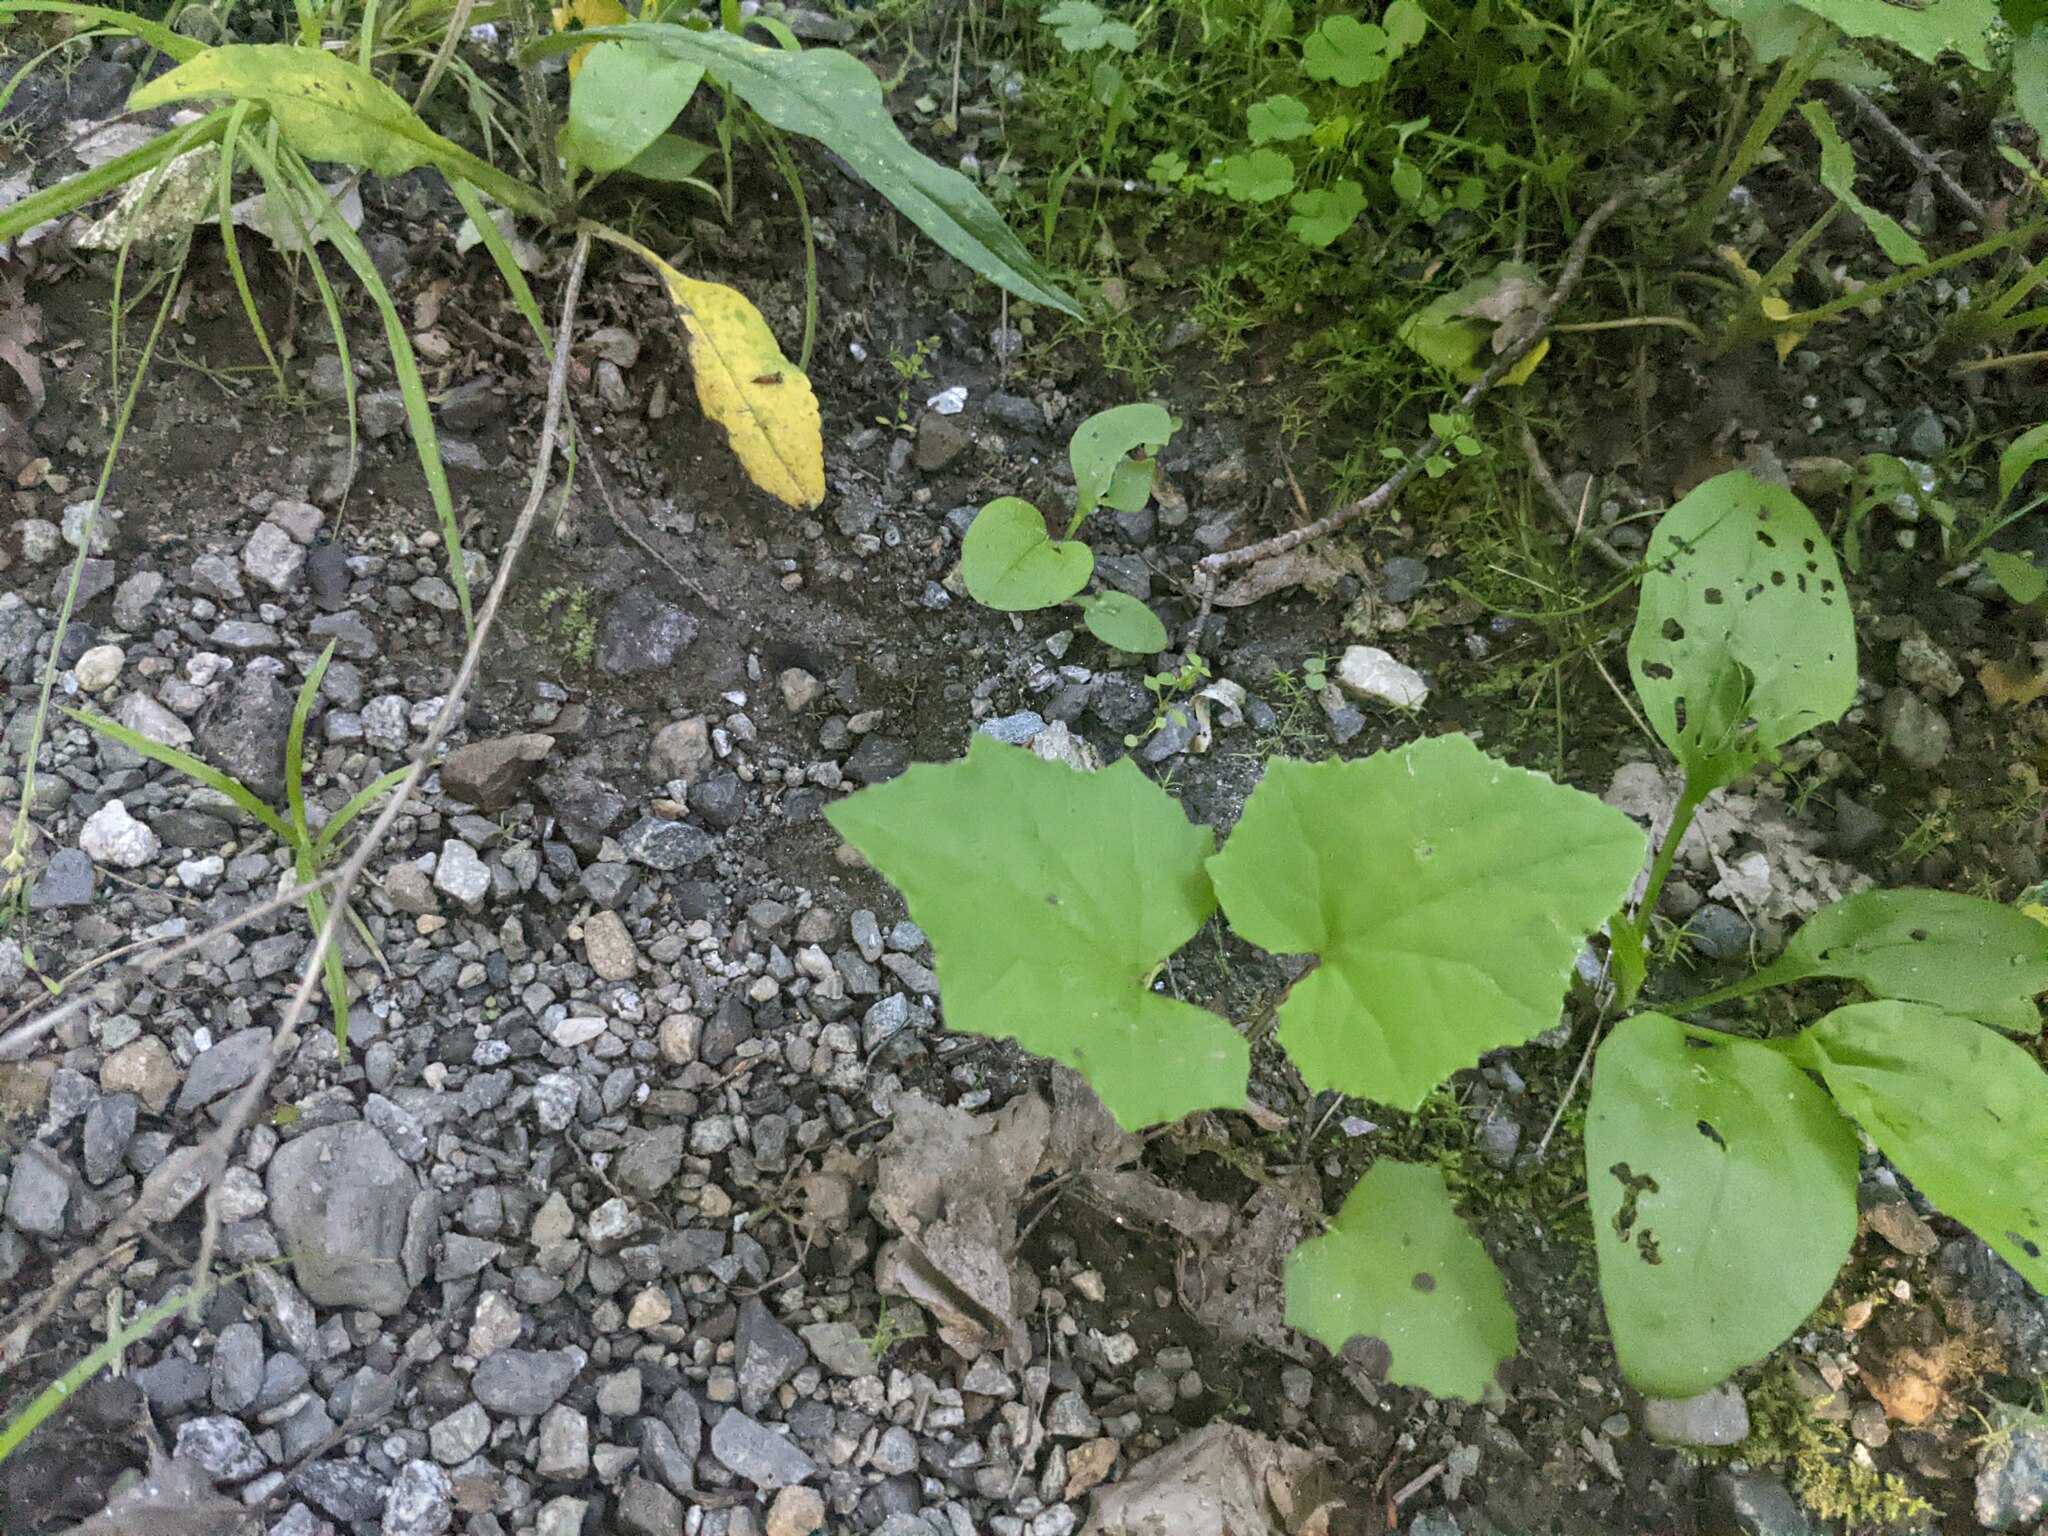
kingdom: Plantae
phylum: Tracheophyta
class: Magnoliopsida
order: Asterales
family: Asteraceae
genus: Tussilago
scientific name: Tussilago farfara
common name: Coltsfoot
